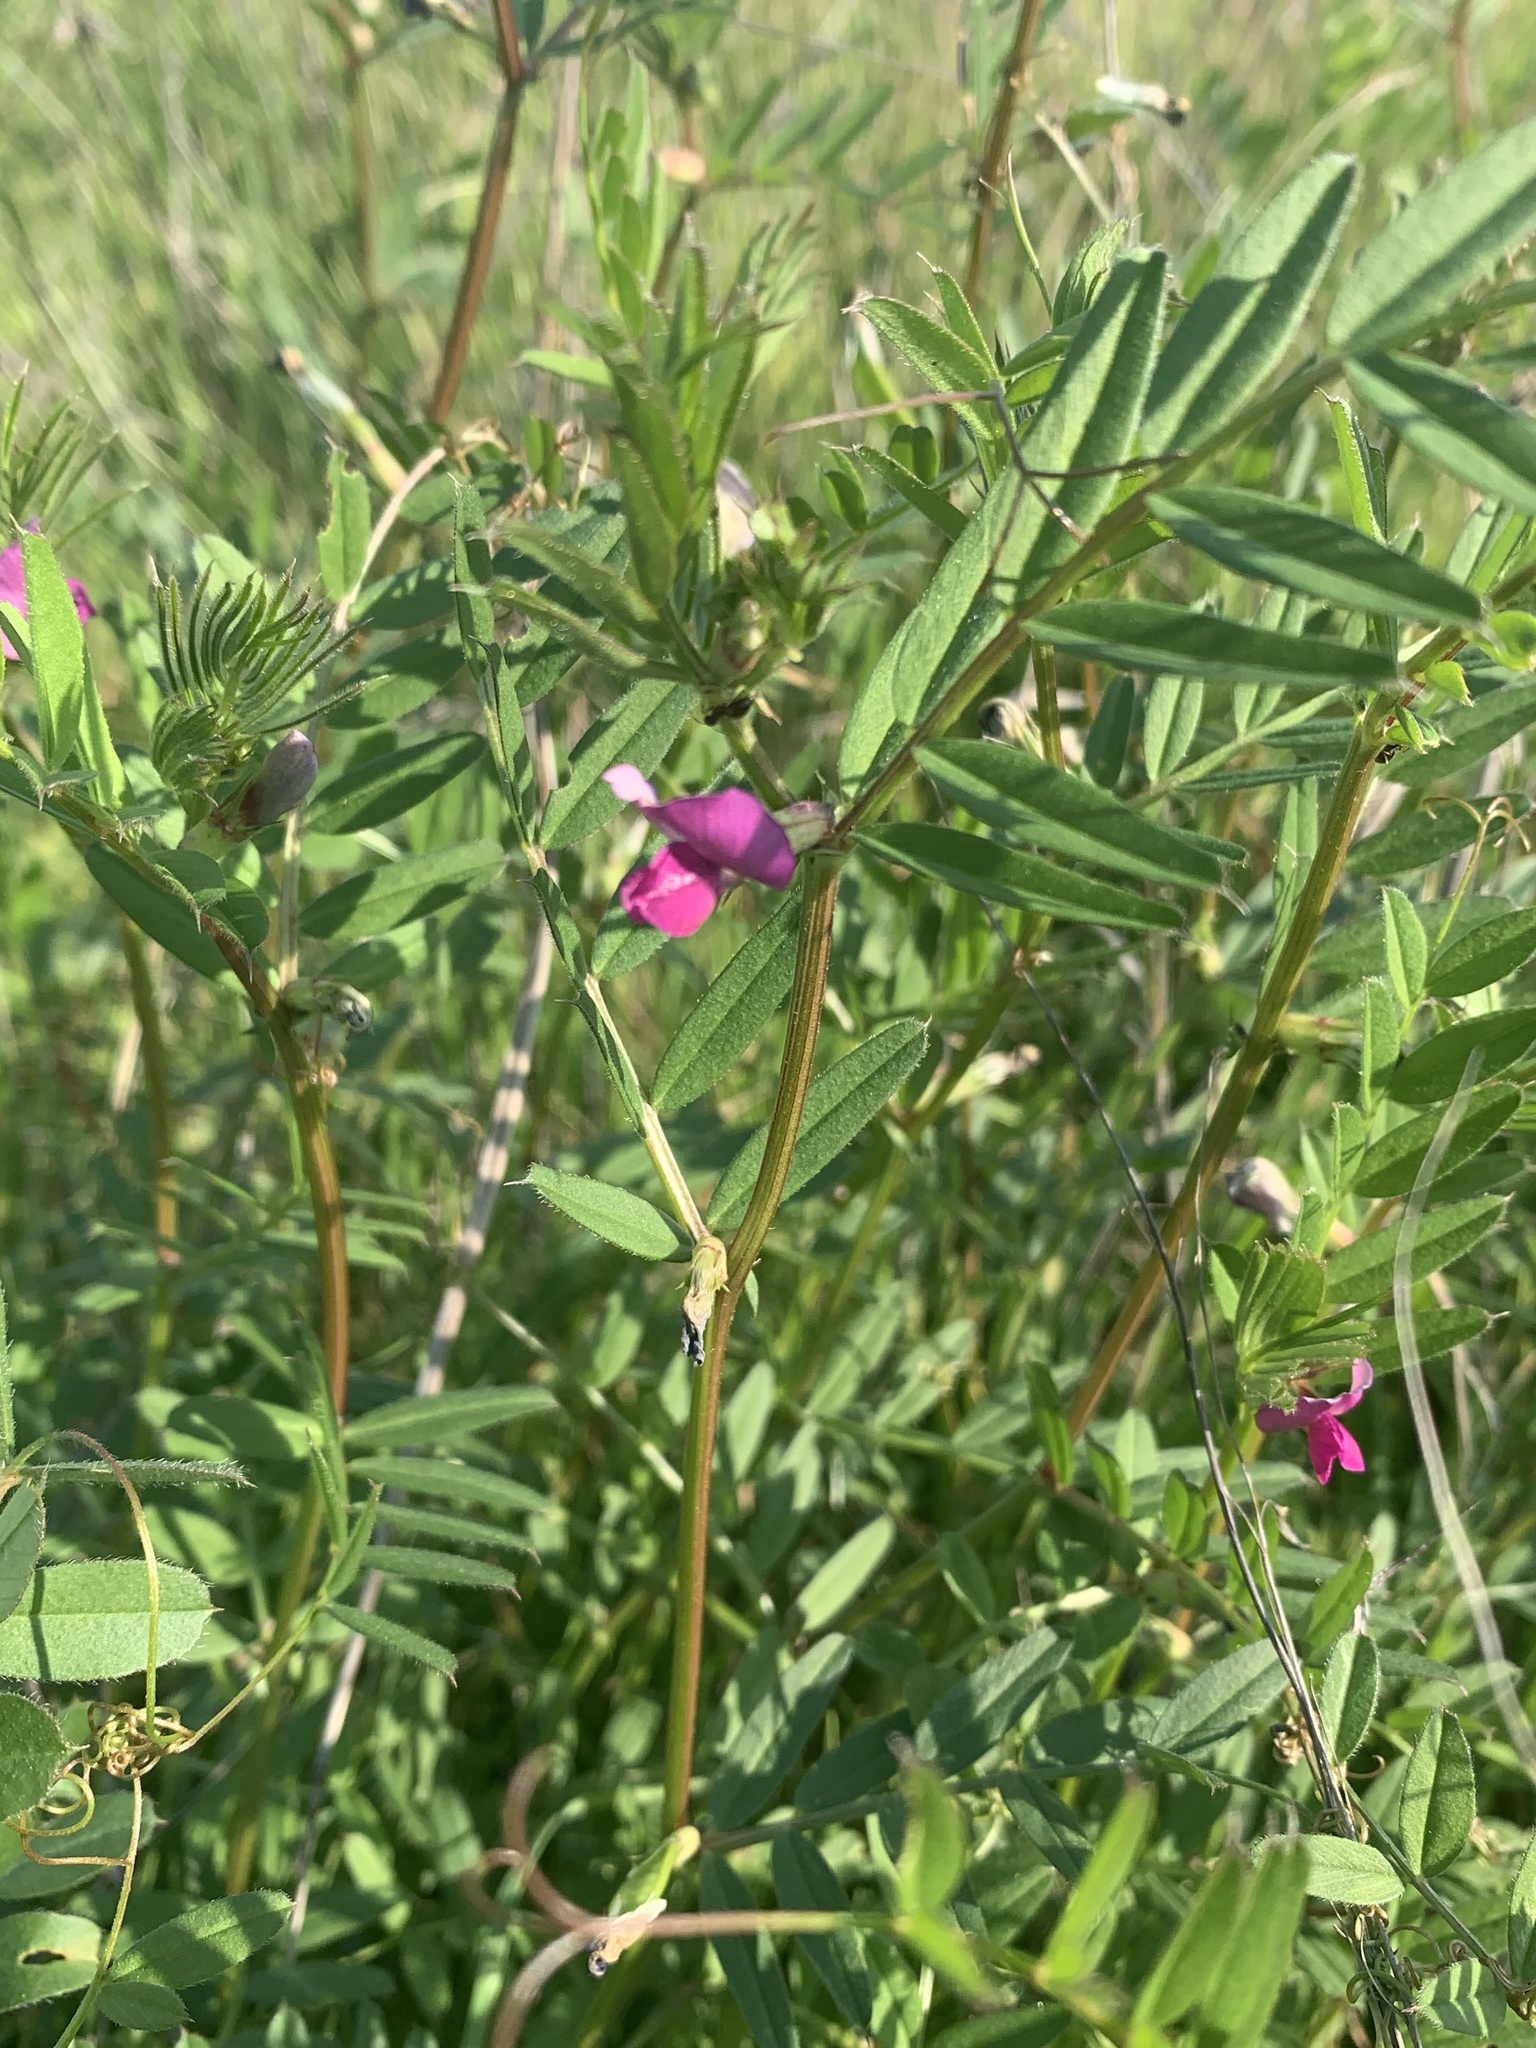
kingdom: Plantae
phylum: Tracheophyta
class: Magnoliopsida
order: Fabales
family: Fabaceae
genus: Vicia
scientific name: Vicia sativa
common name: Garden vetch
